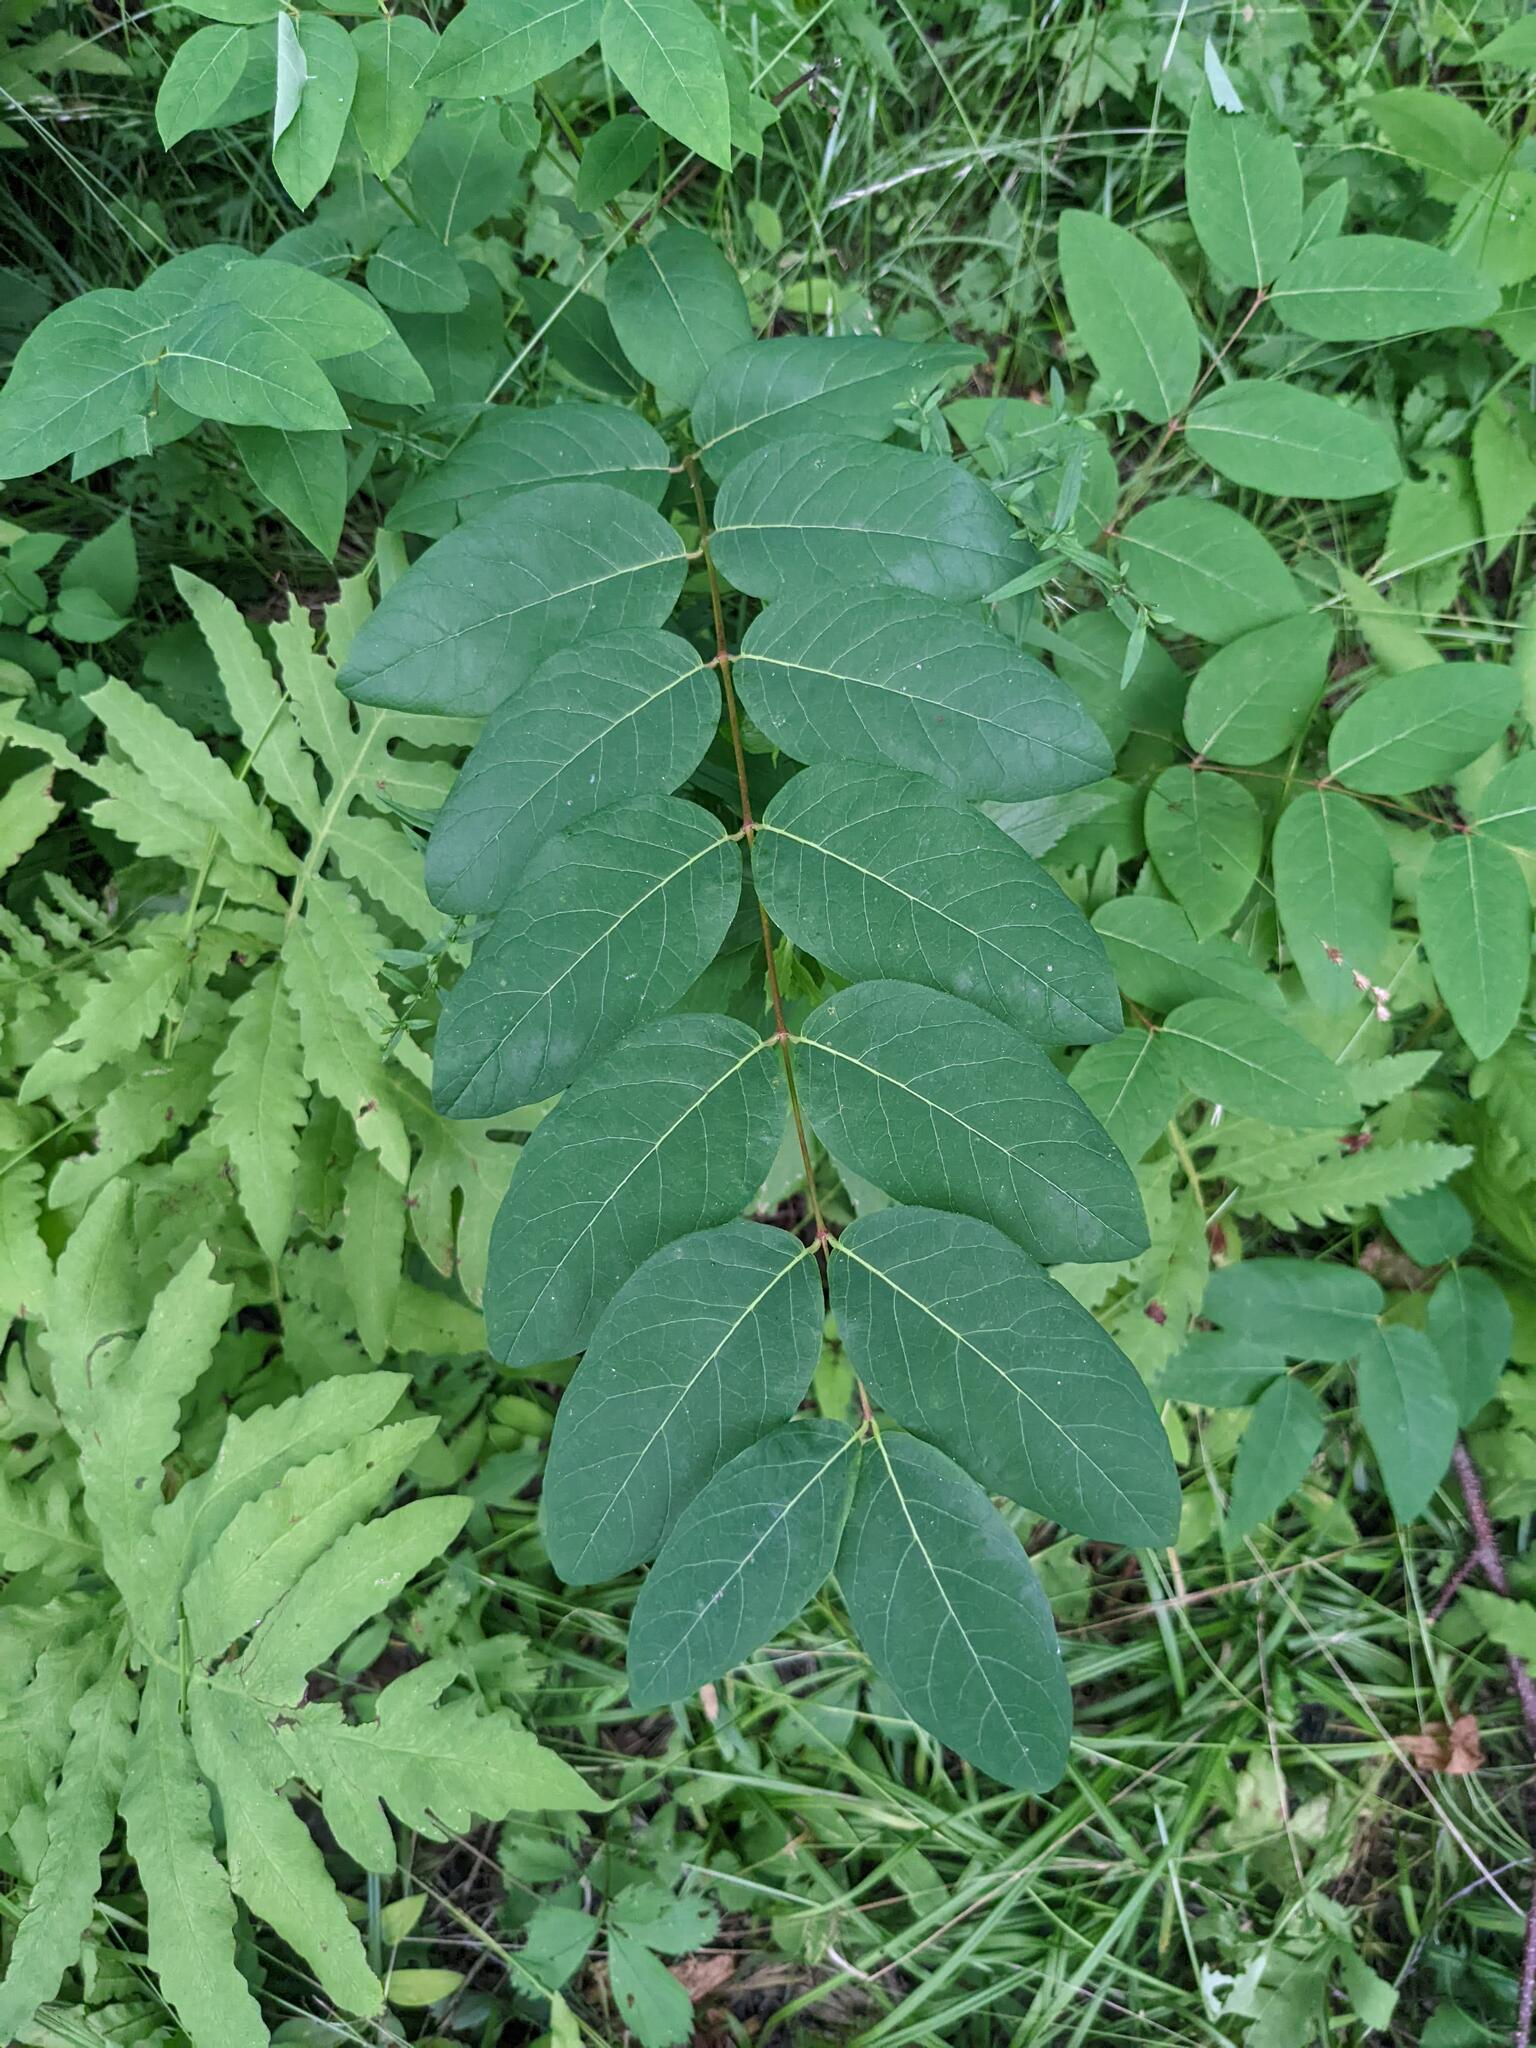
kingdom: Plantae
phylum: Tracheophyta
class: Magnoliopsida
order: Gentianales
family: Apocynaceae
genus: Apocynum
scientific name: Apocynum androsaemifolium
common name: Spreading dogbane
